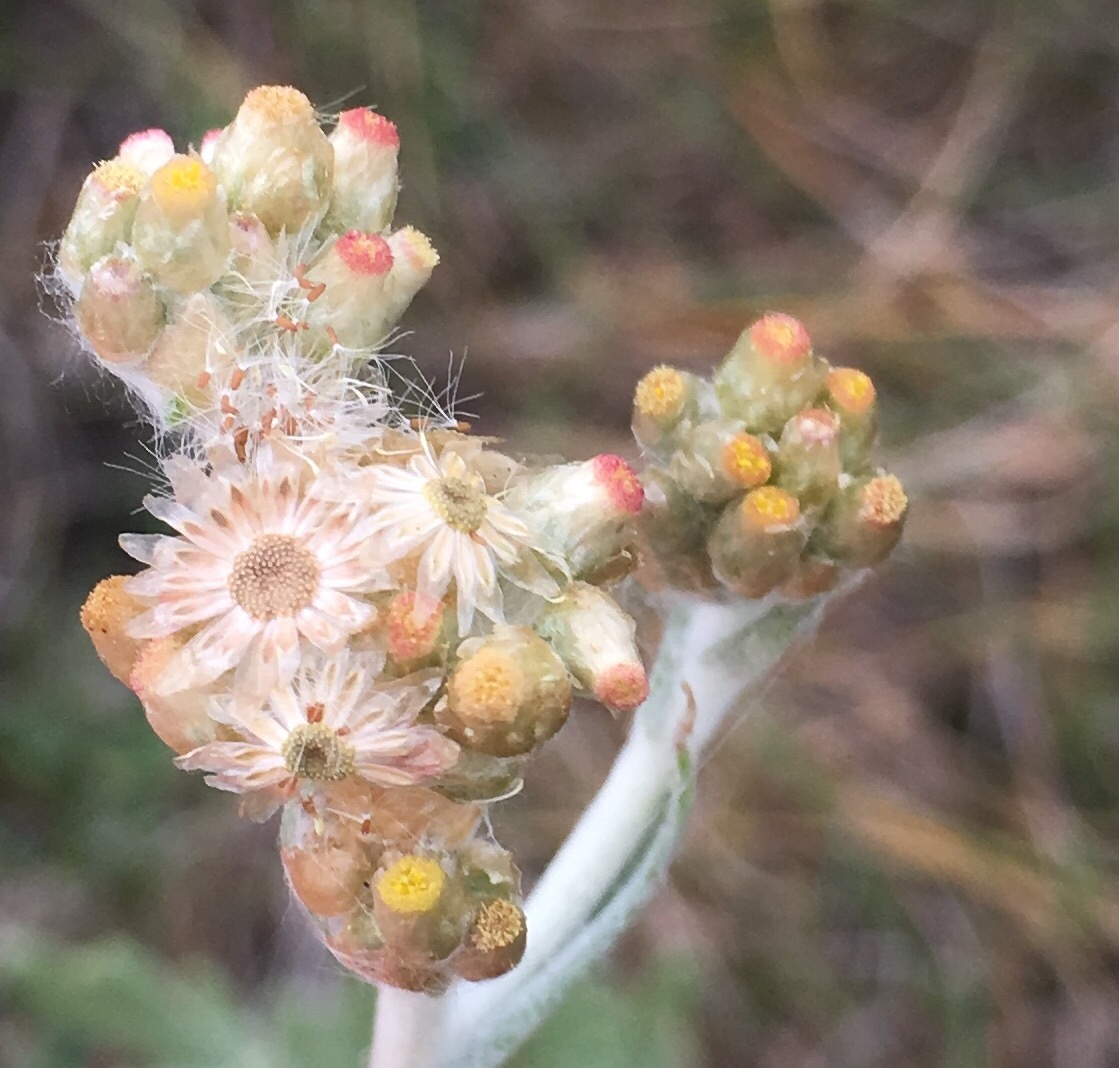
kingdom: Plantae
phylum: Tracheophyta
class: Magnoliopsida
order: Asterales
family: Asteraceae
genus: Helichrysum
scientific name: Helichrysum luteoalbum
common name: Daisy
